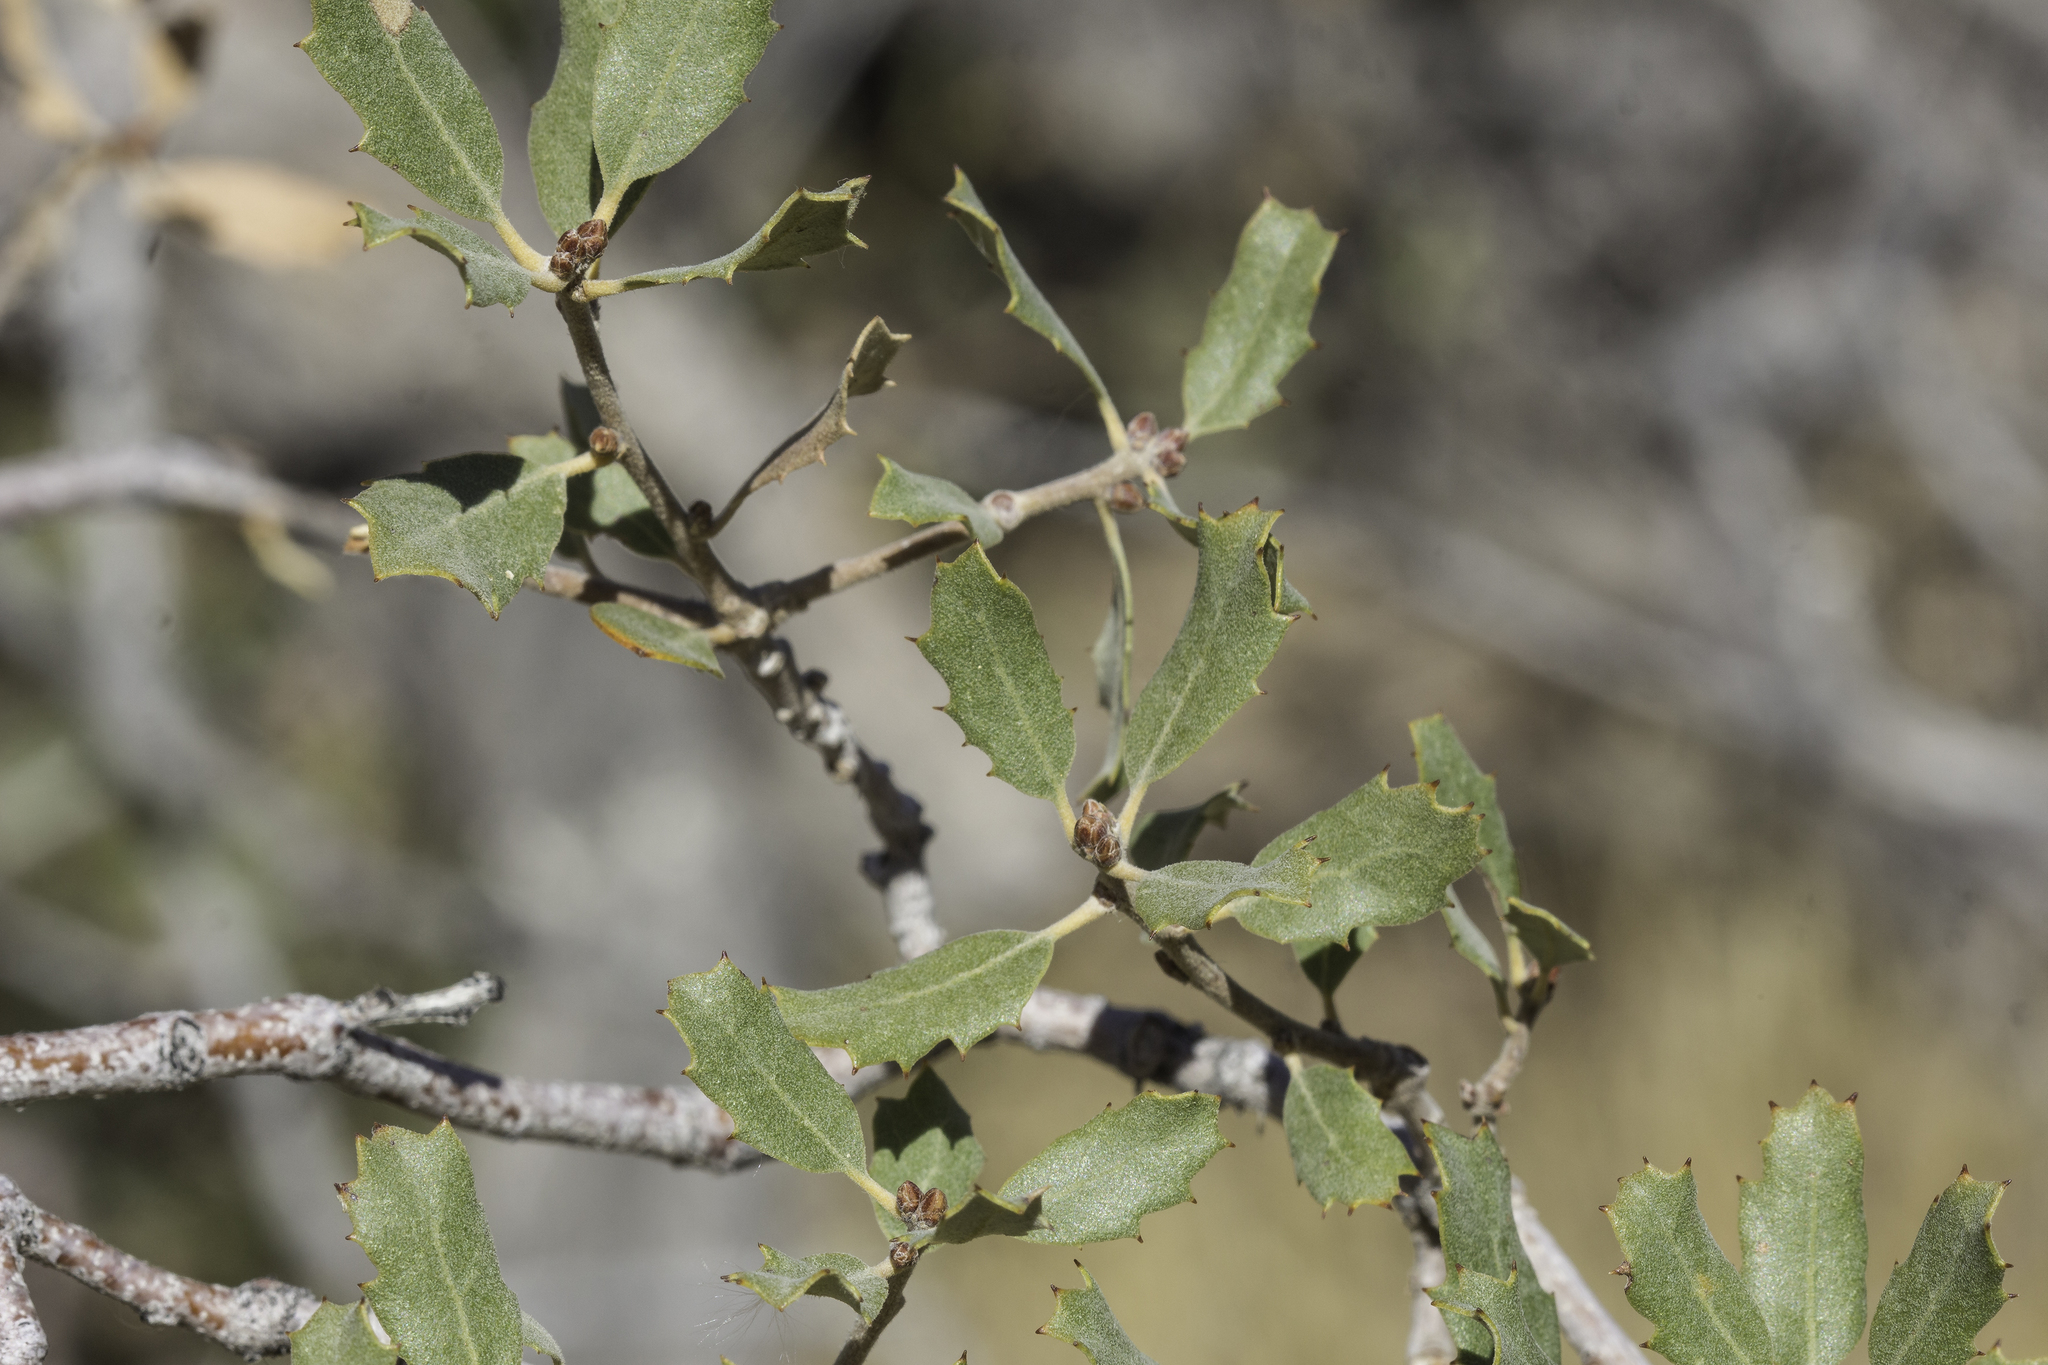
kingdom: Plantae
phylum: Tracheophyta
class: Magnoliopsida
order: Fagales
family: Fagaceae
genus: Quercus
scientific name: Quercus cornelius-mulleri
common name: Muller oak
